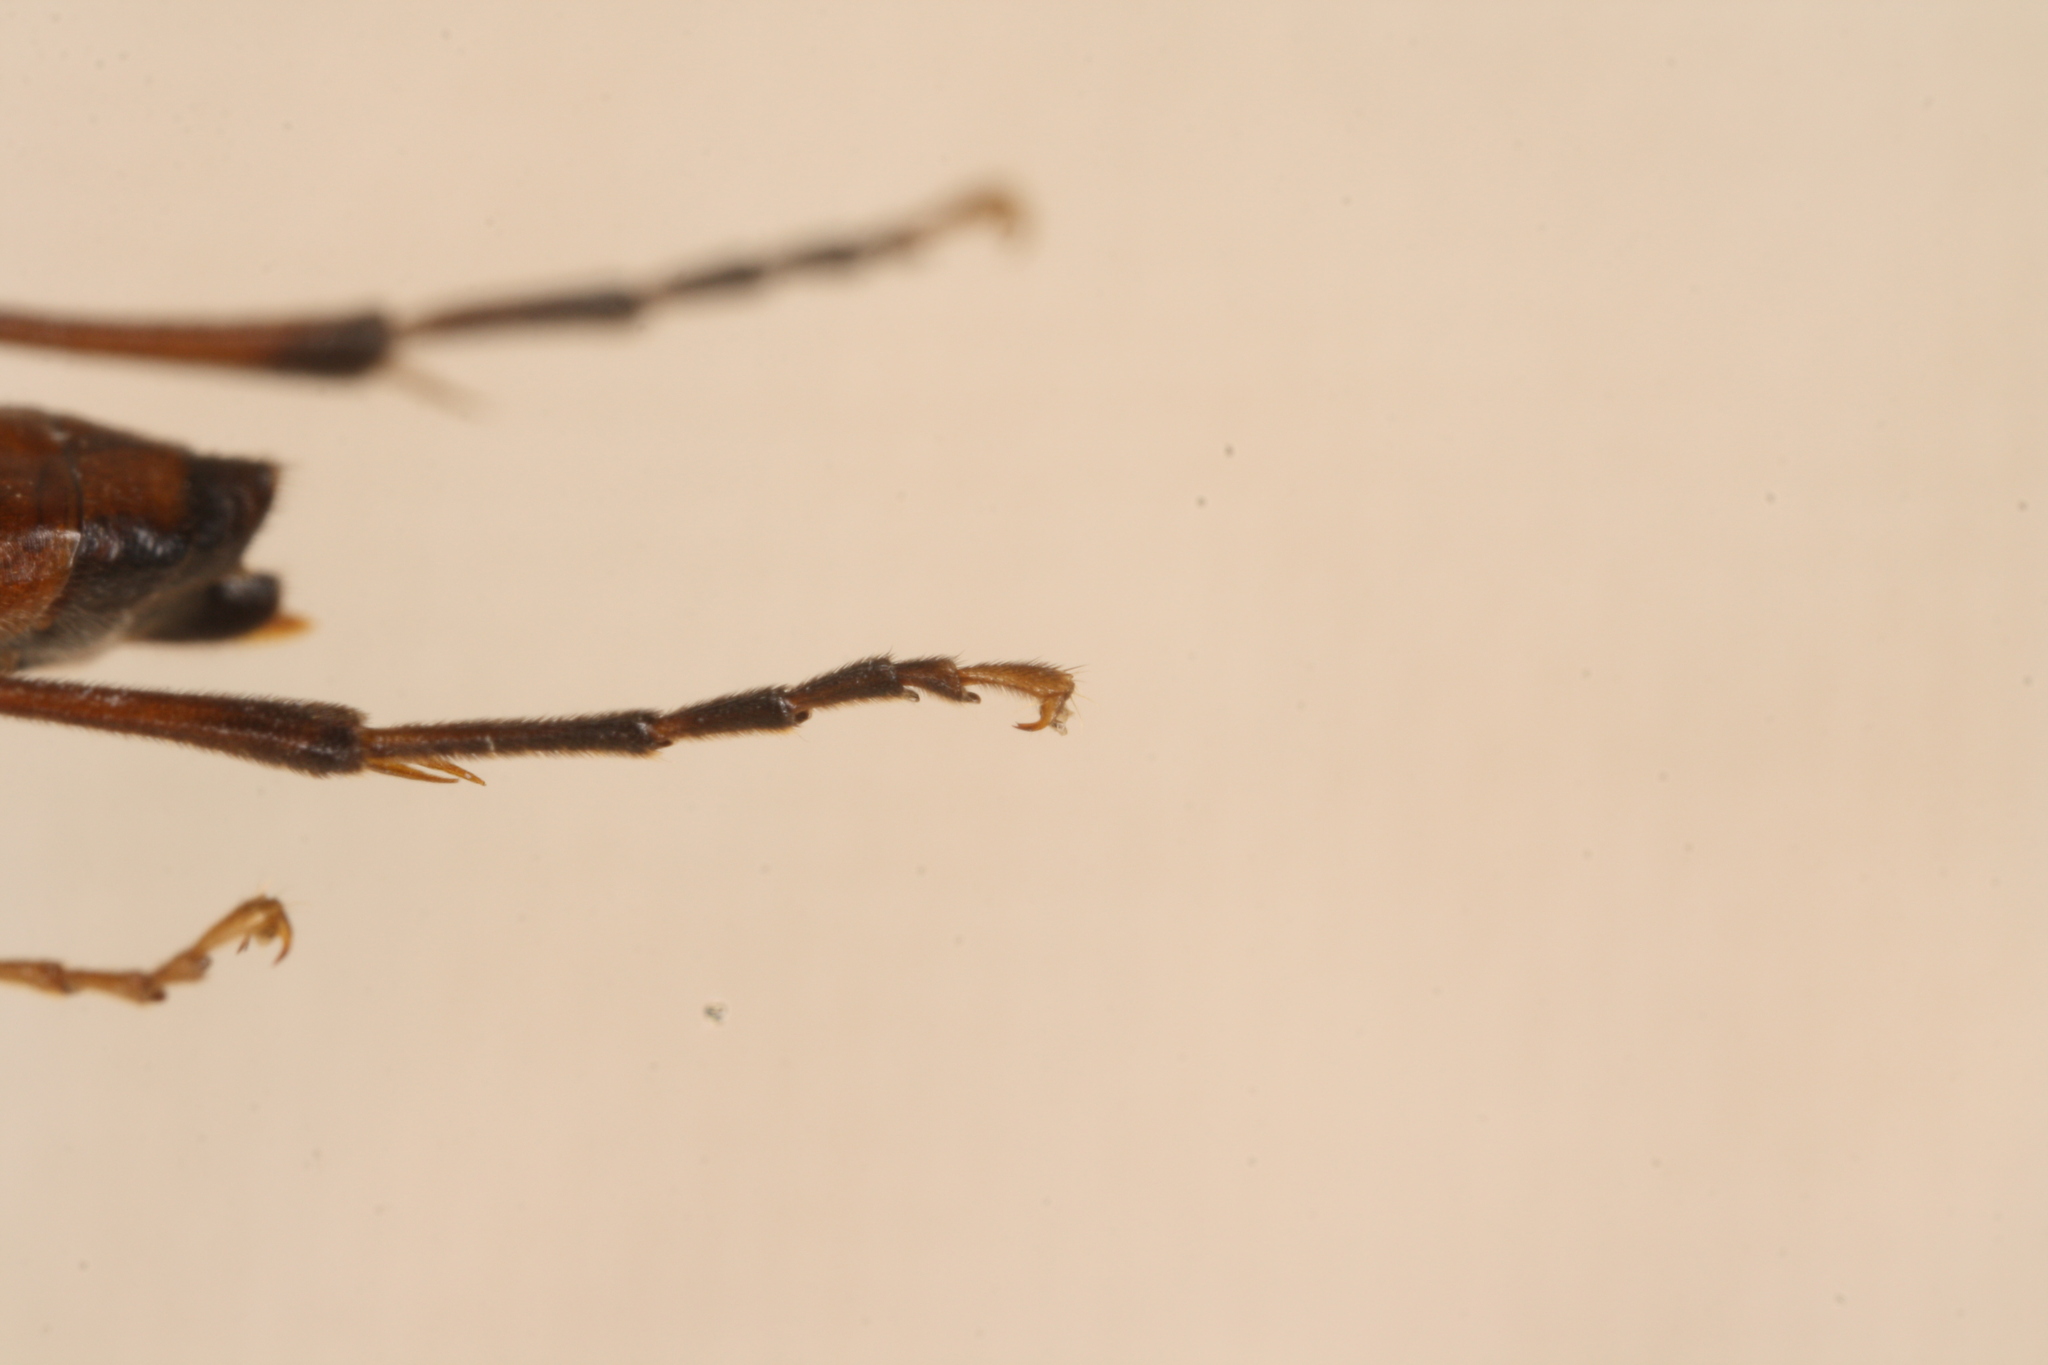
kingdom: Animalia
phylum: Arthropoda
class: Insecta
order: Hymenoptera
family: Tenthredinidae
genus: Tenthredo
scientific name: Tenthredo colon
